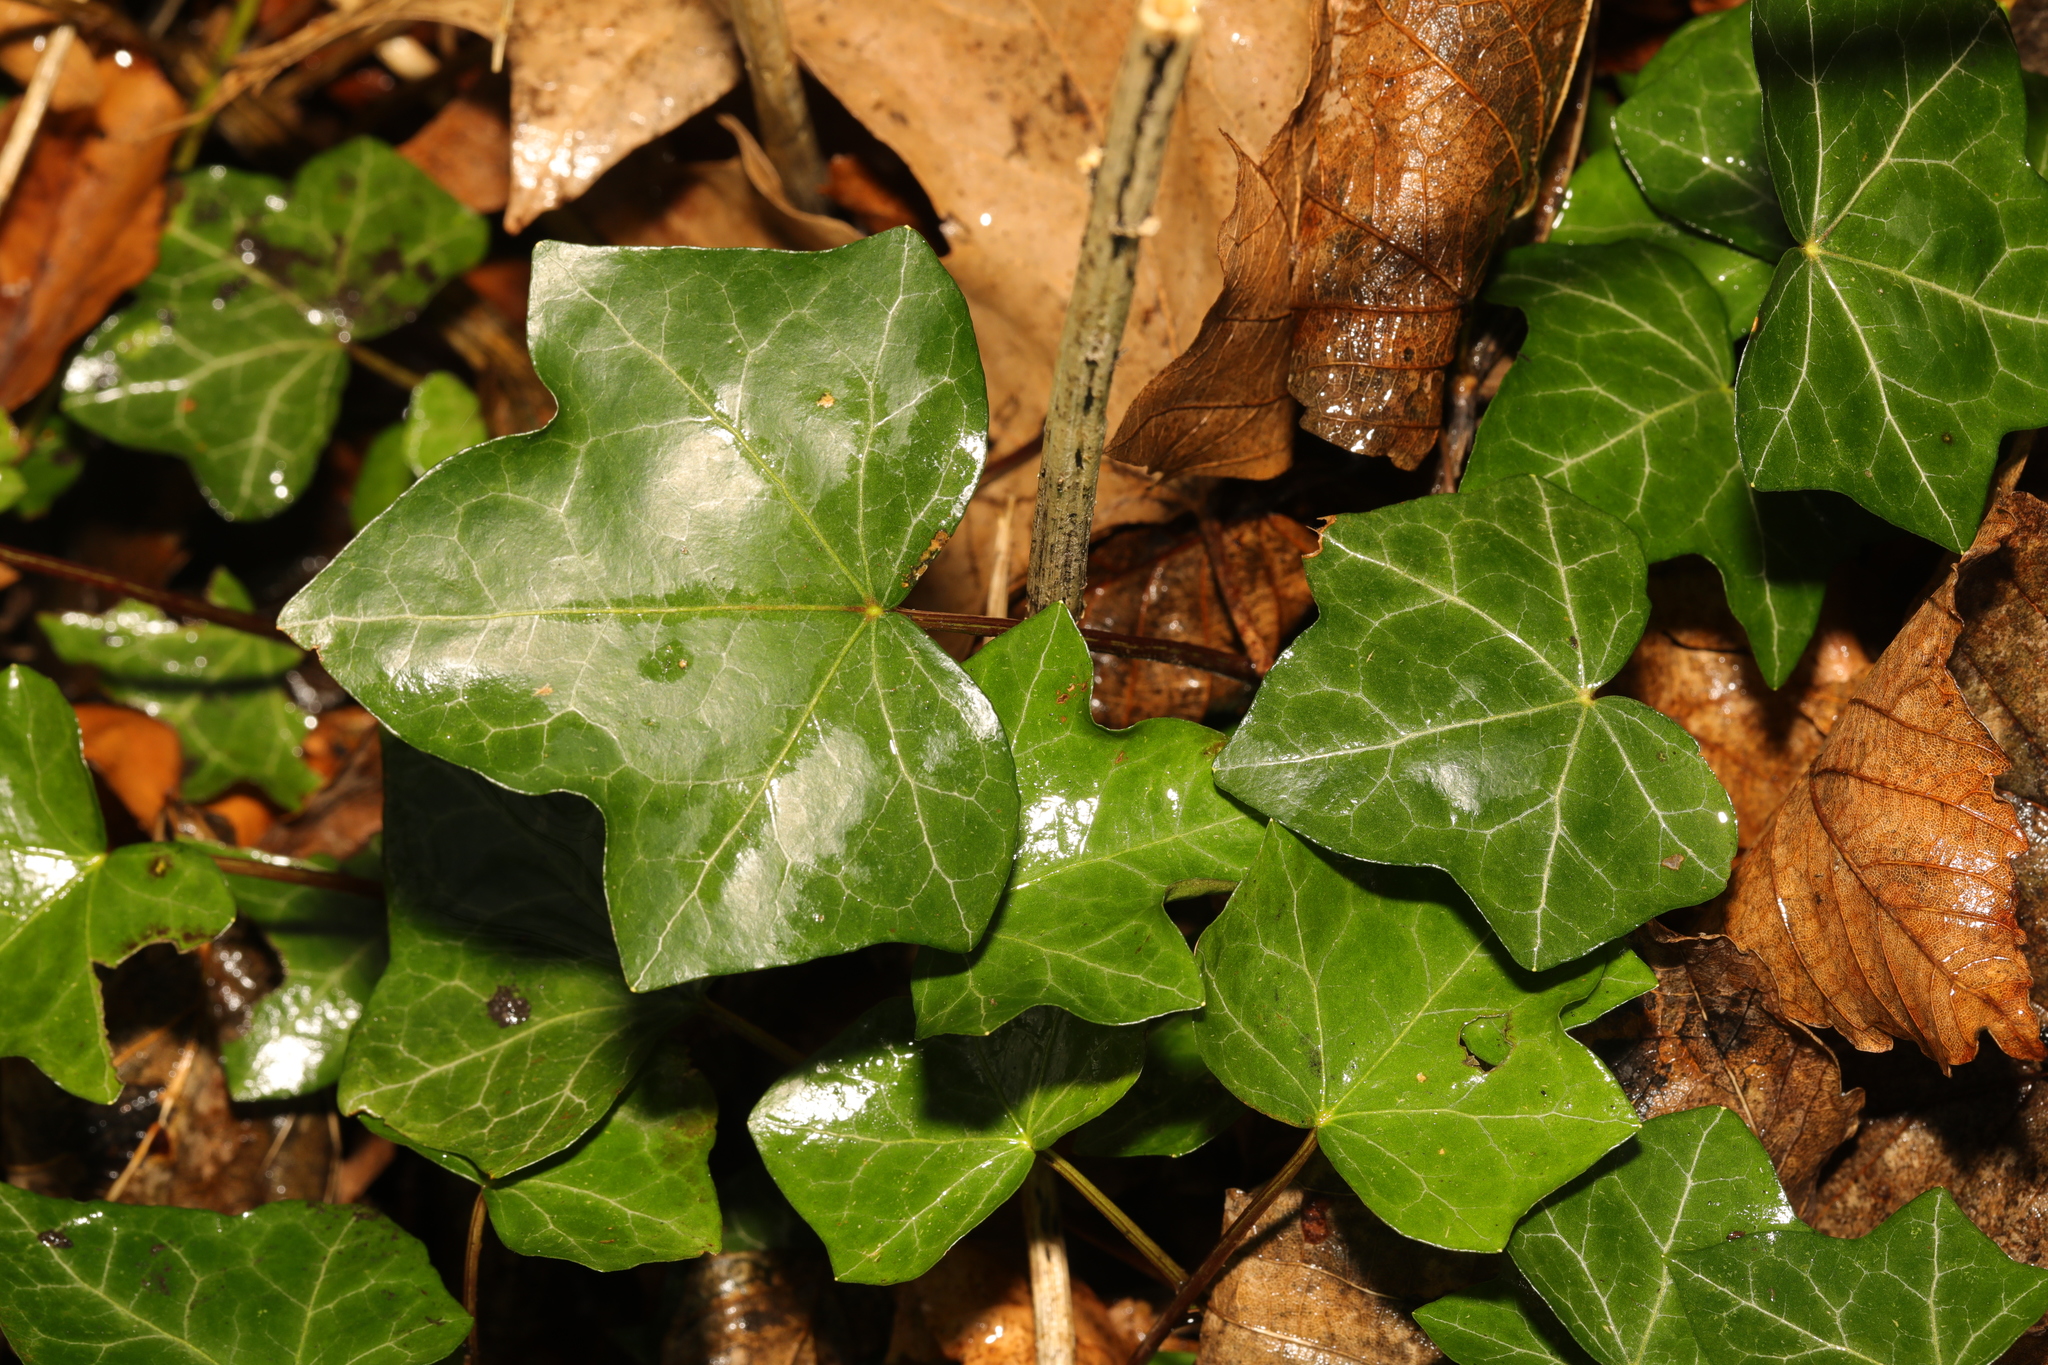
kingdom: Plantae
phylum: Tracheophyta
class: Magnoliopsida
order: Apiales
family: Araliaceae
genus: Hedera
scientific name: Hedera helix
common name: Ivy
